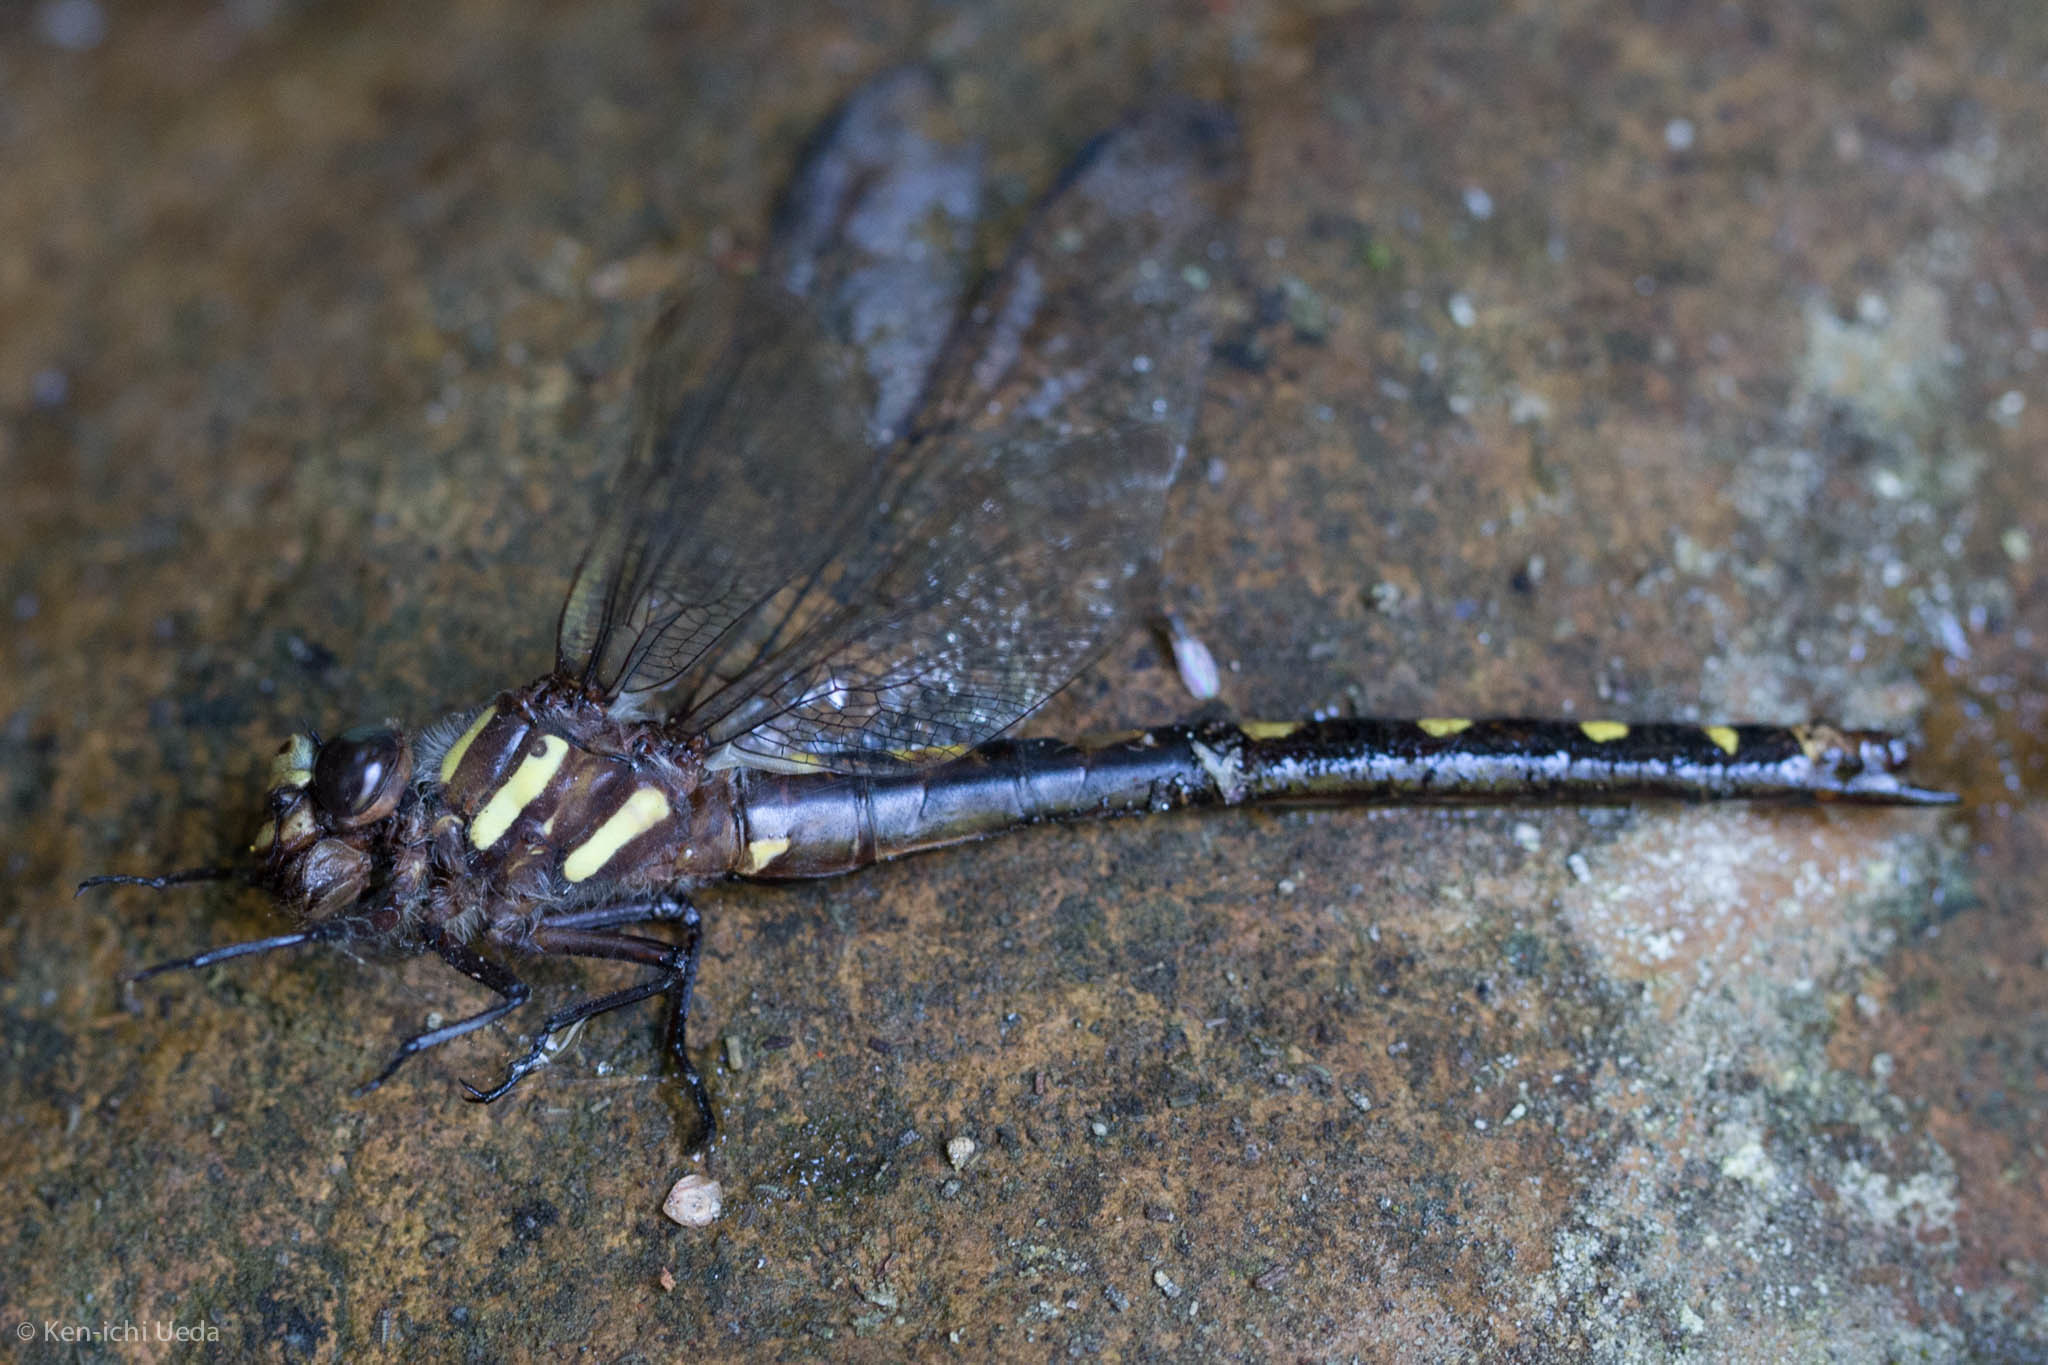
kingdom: Animalia
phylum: Arthropoda
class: Insecta
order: Odonata
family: Cordulegastridae
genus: Cordulegaster
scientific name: Cordulegaster dorsalis
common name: Pacific spiketail
